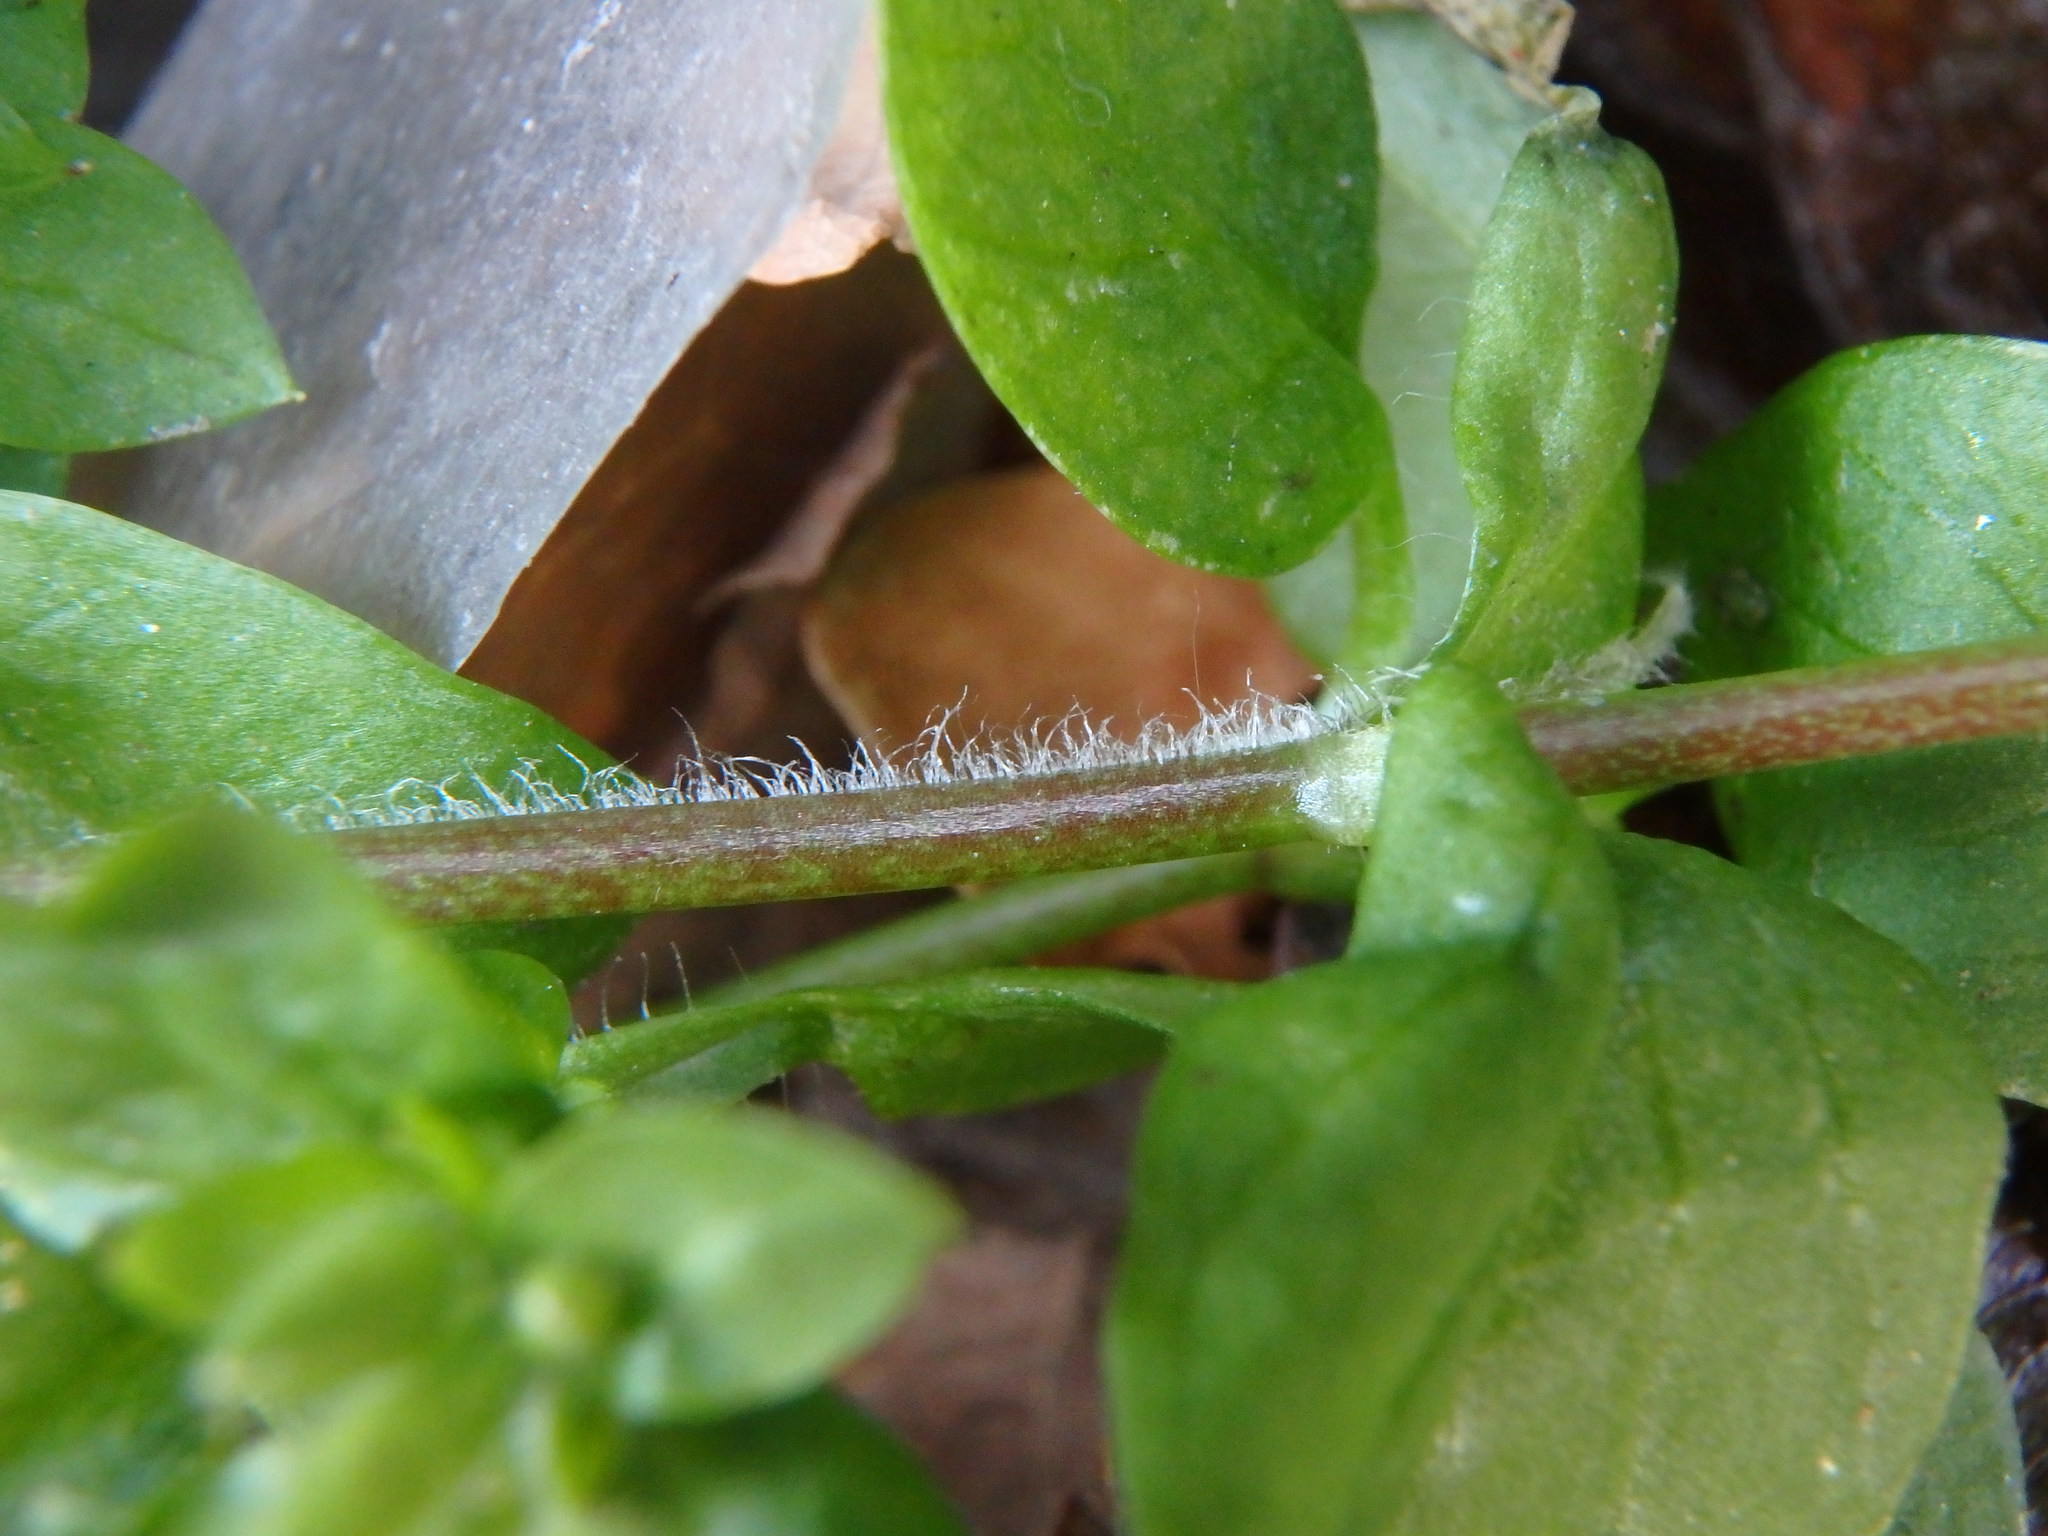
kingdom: Plantae
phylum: Tracheophyta
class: Magnoliopsida
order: Caryophyllales
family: Caryophyllaceae
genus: Stellaria
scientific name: Stellaria media
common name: Common chickweed
